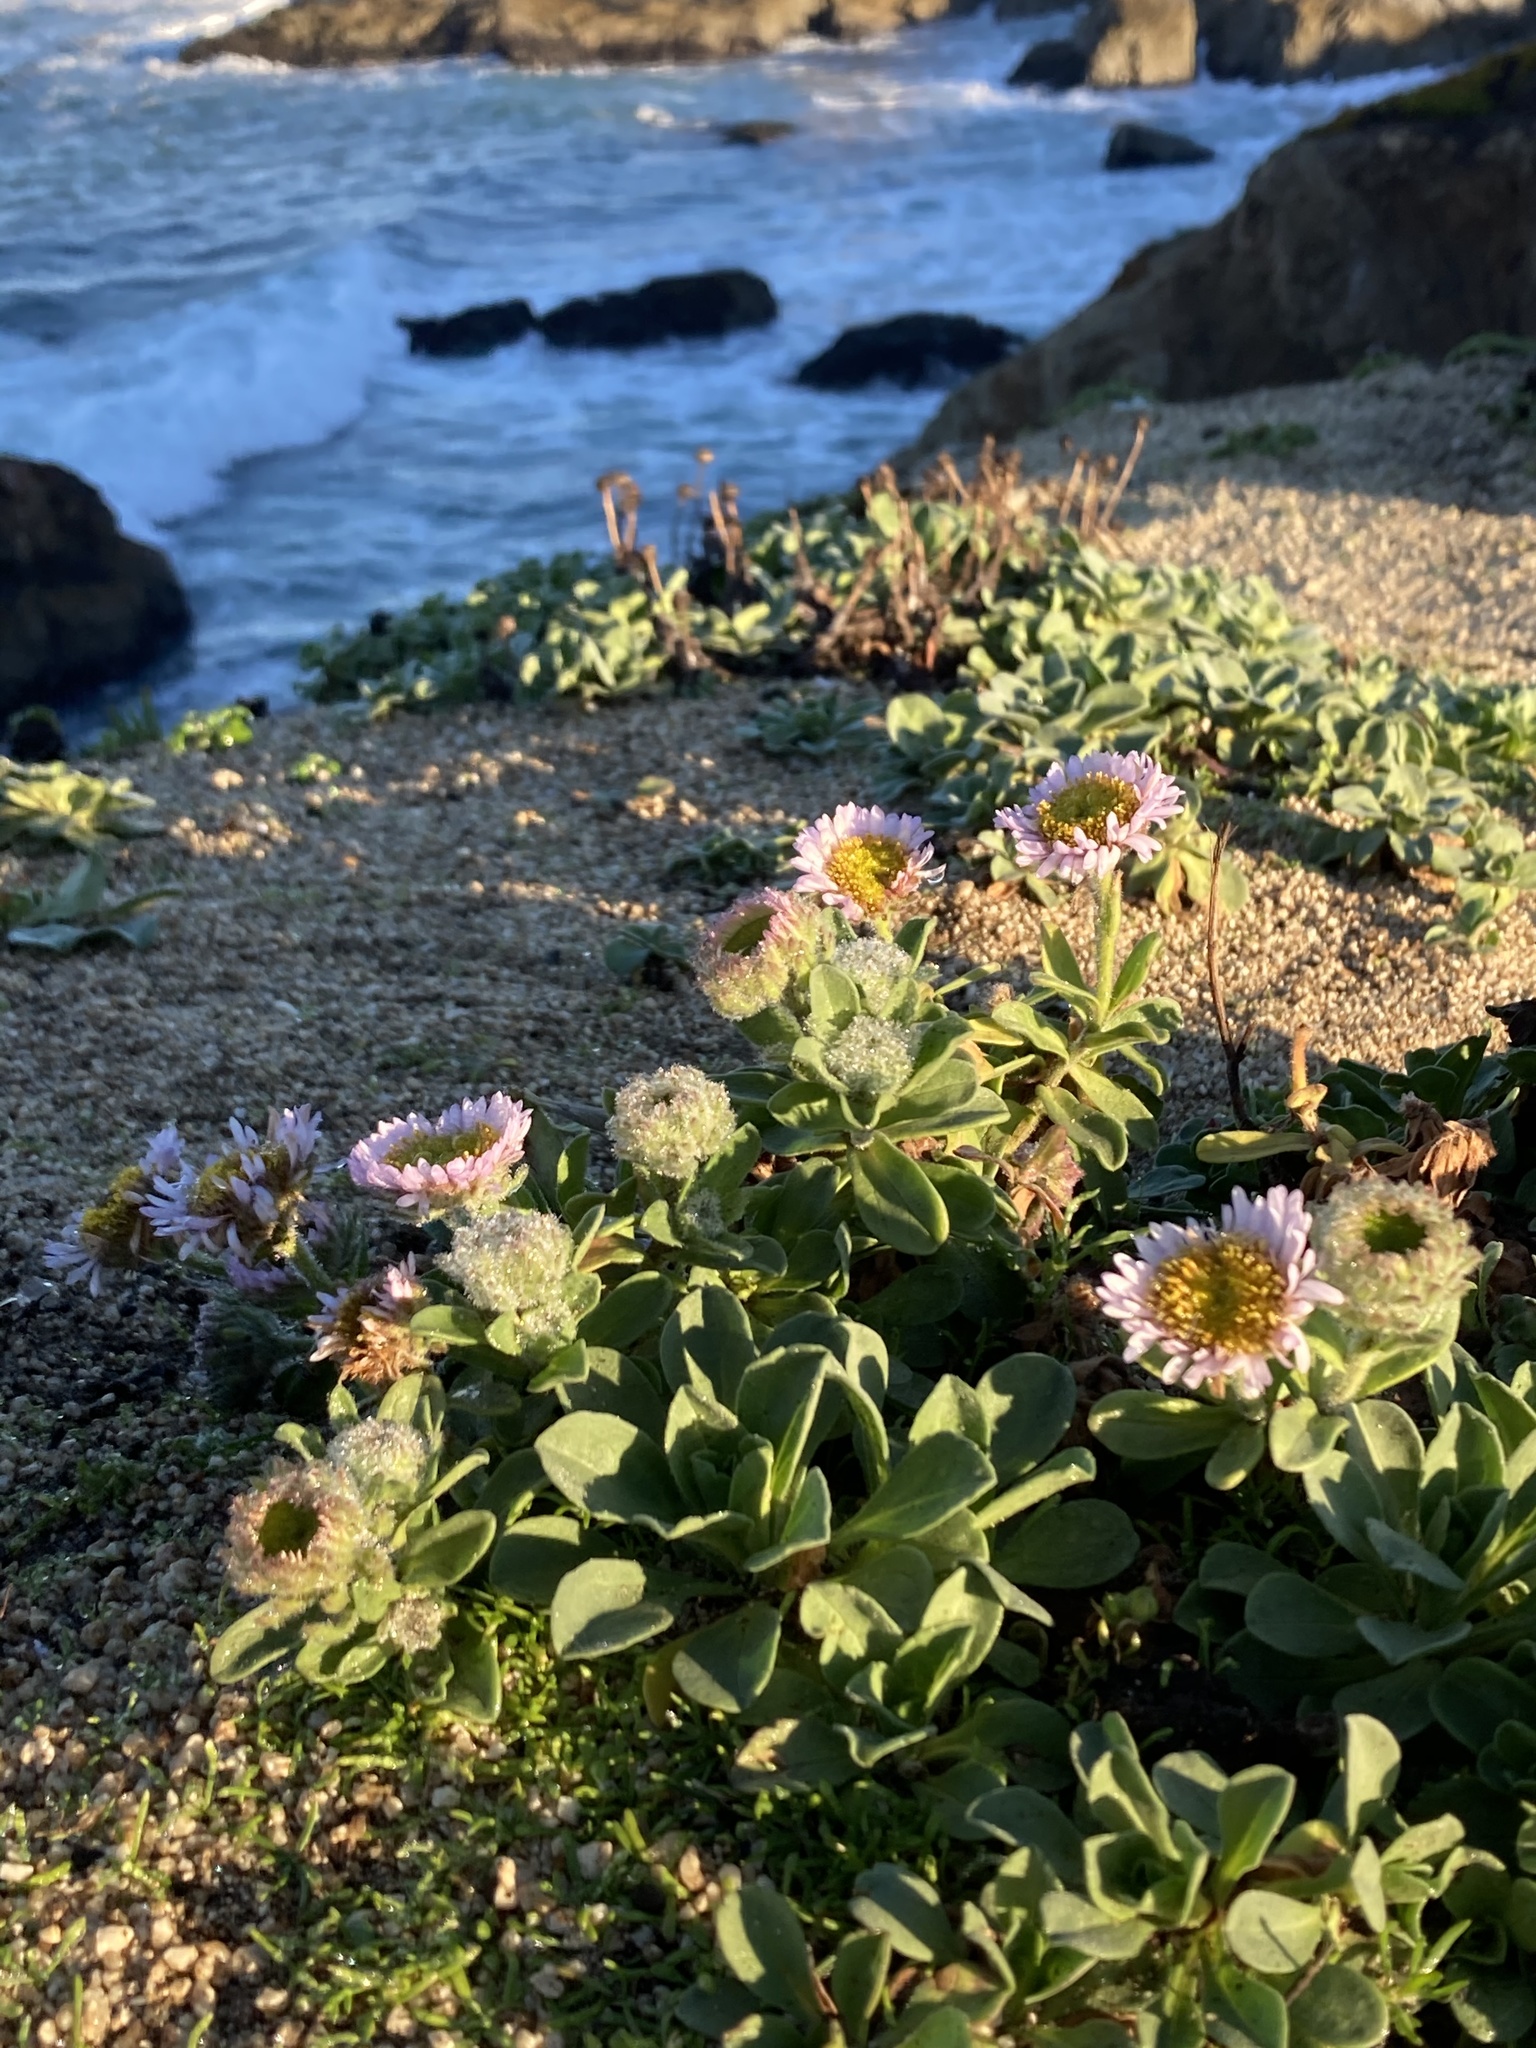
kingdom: Plantae
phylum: Tracheophyta
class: Magnoliopsida
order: Asterales
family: Asteraceae
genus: Erigeron
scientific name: Erigeron glaucus
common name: Seaside daisy
